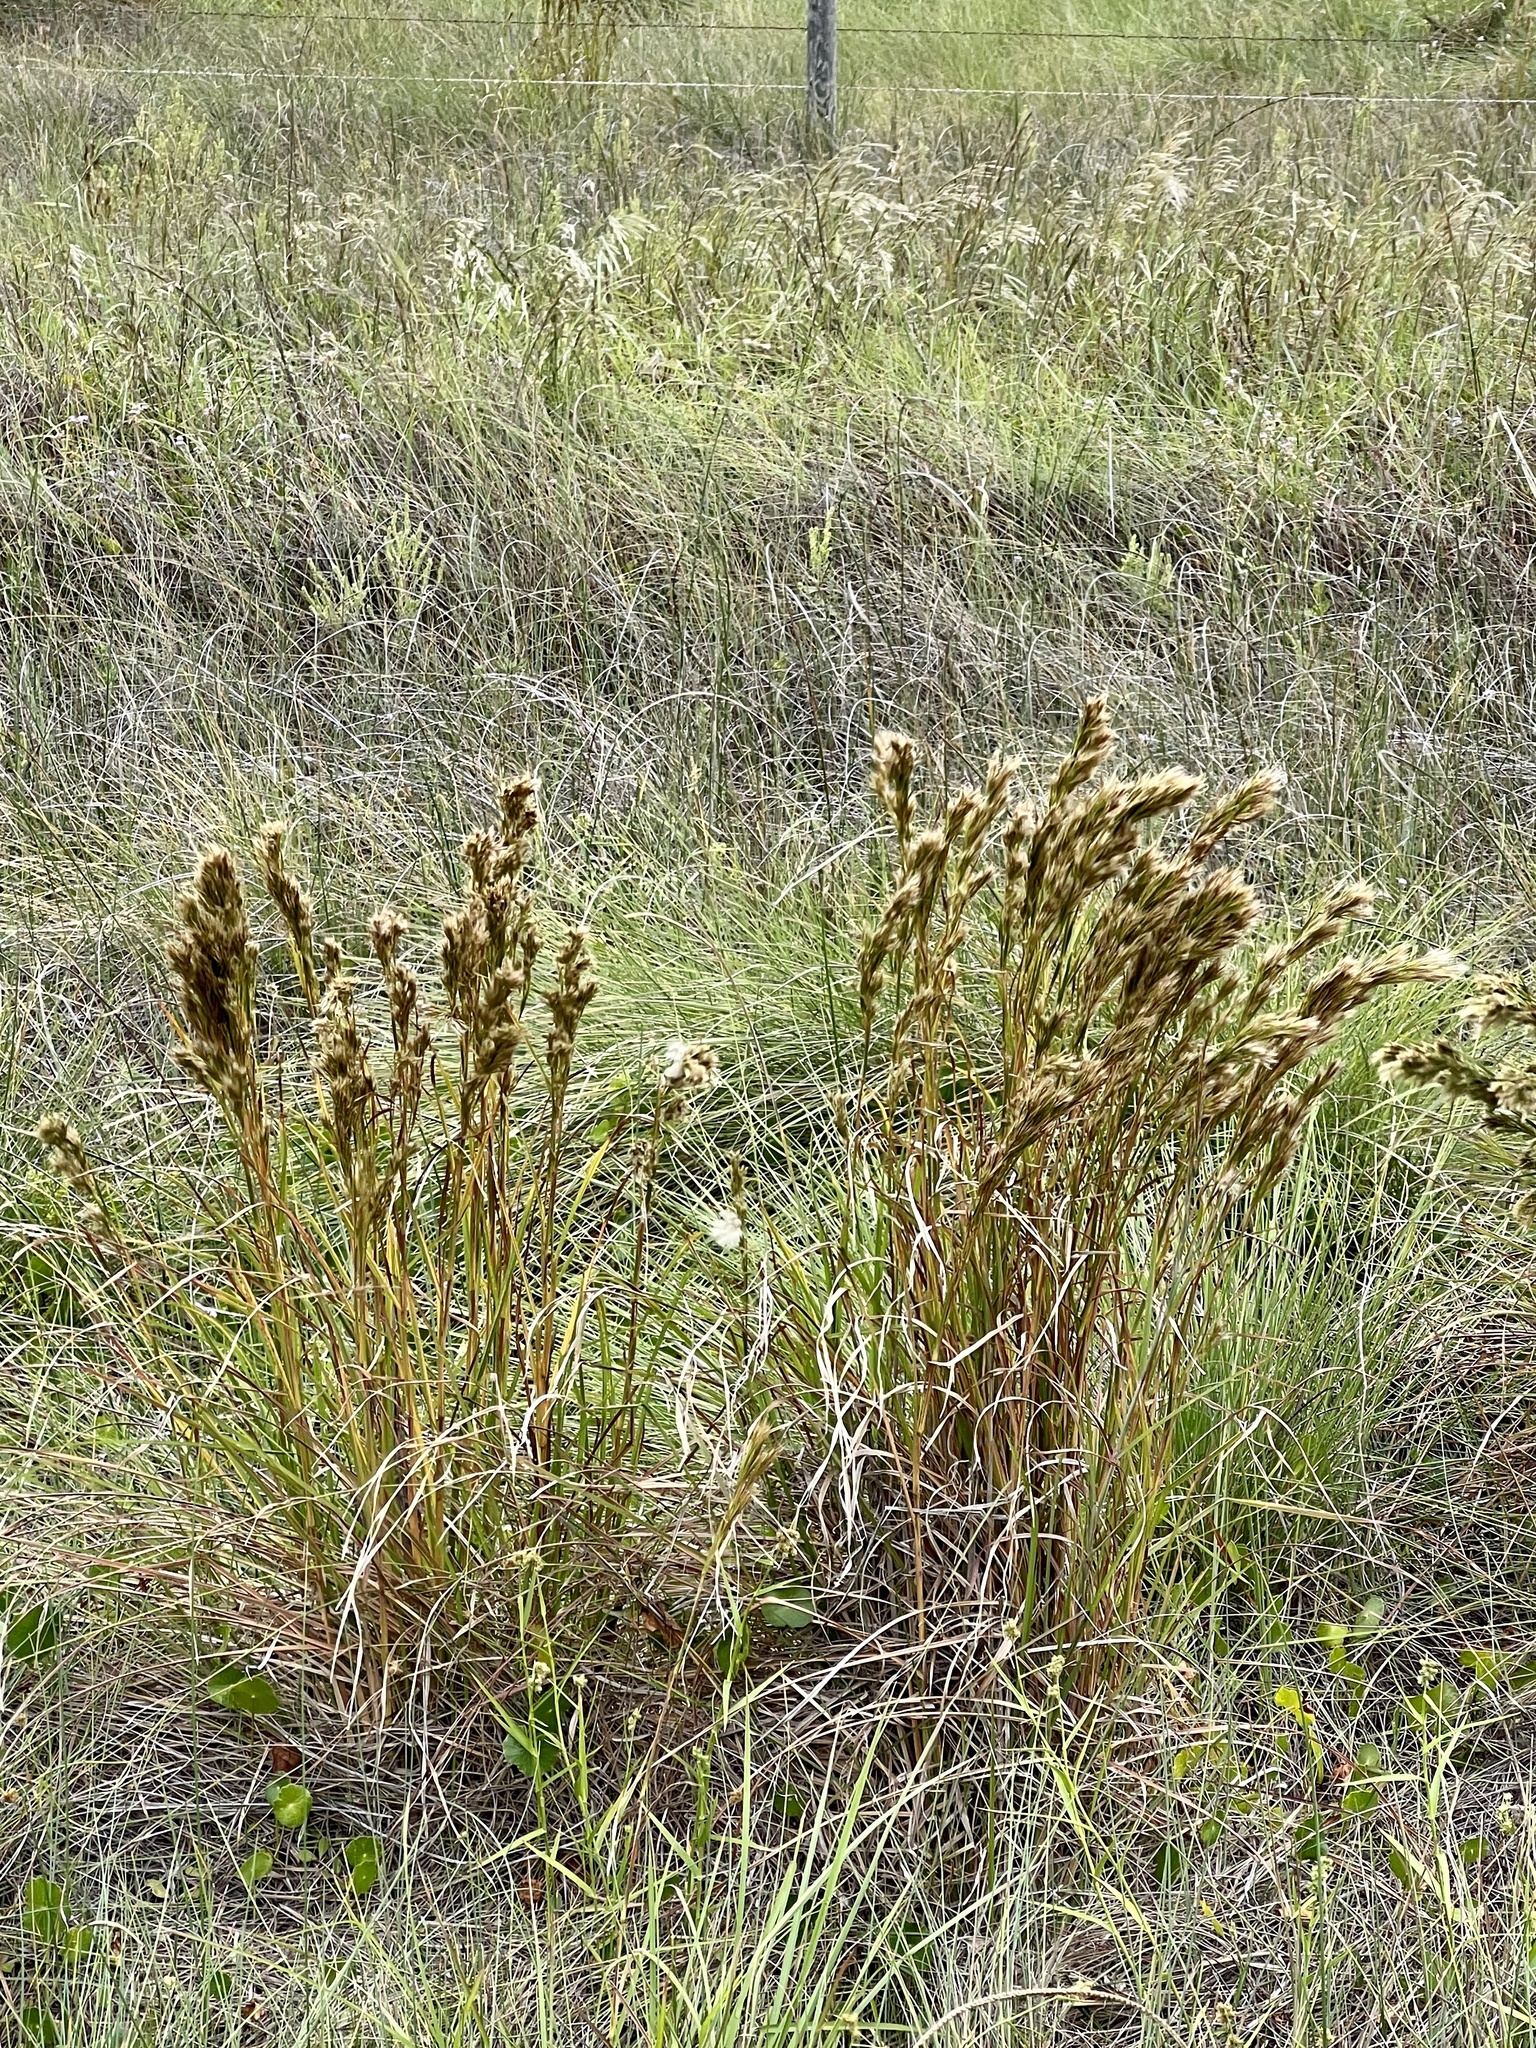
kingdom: Plantae
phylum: Tracheophyta
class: Liliopsida
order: Poales
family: Poaceae
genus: Andropogon
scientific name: Andropogon tenuispatheus
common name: Bushy bluestem
